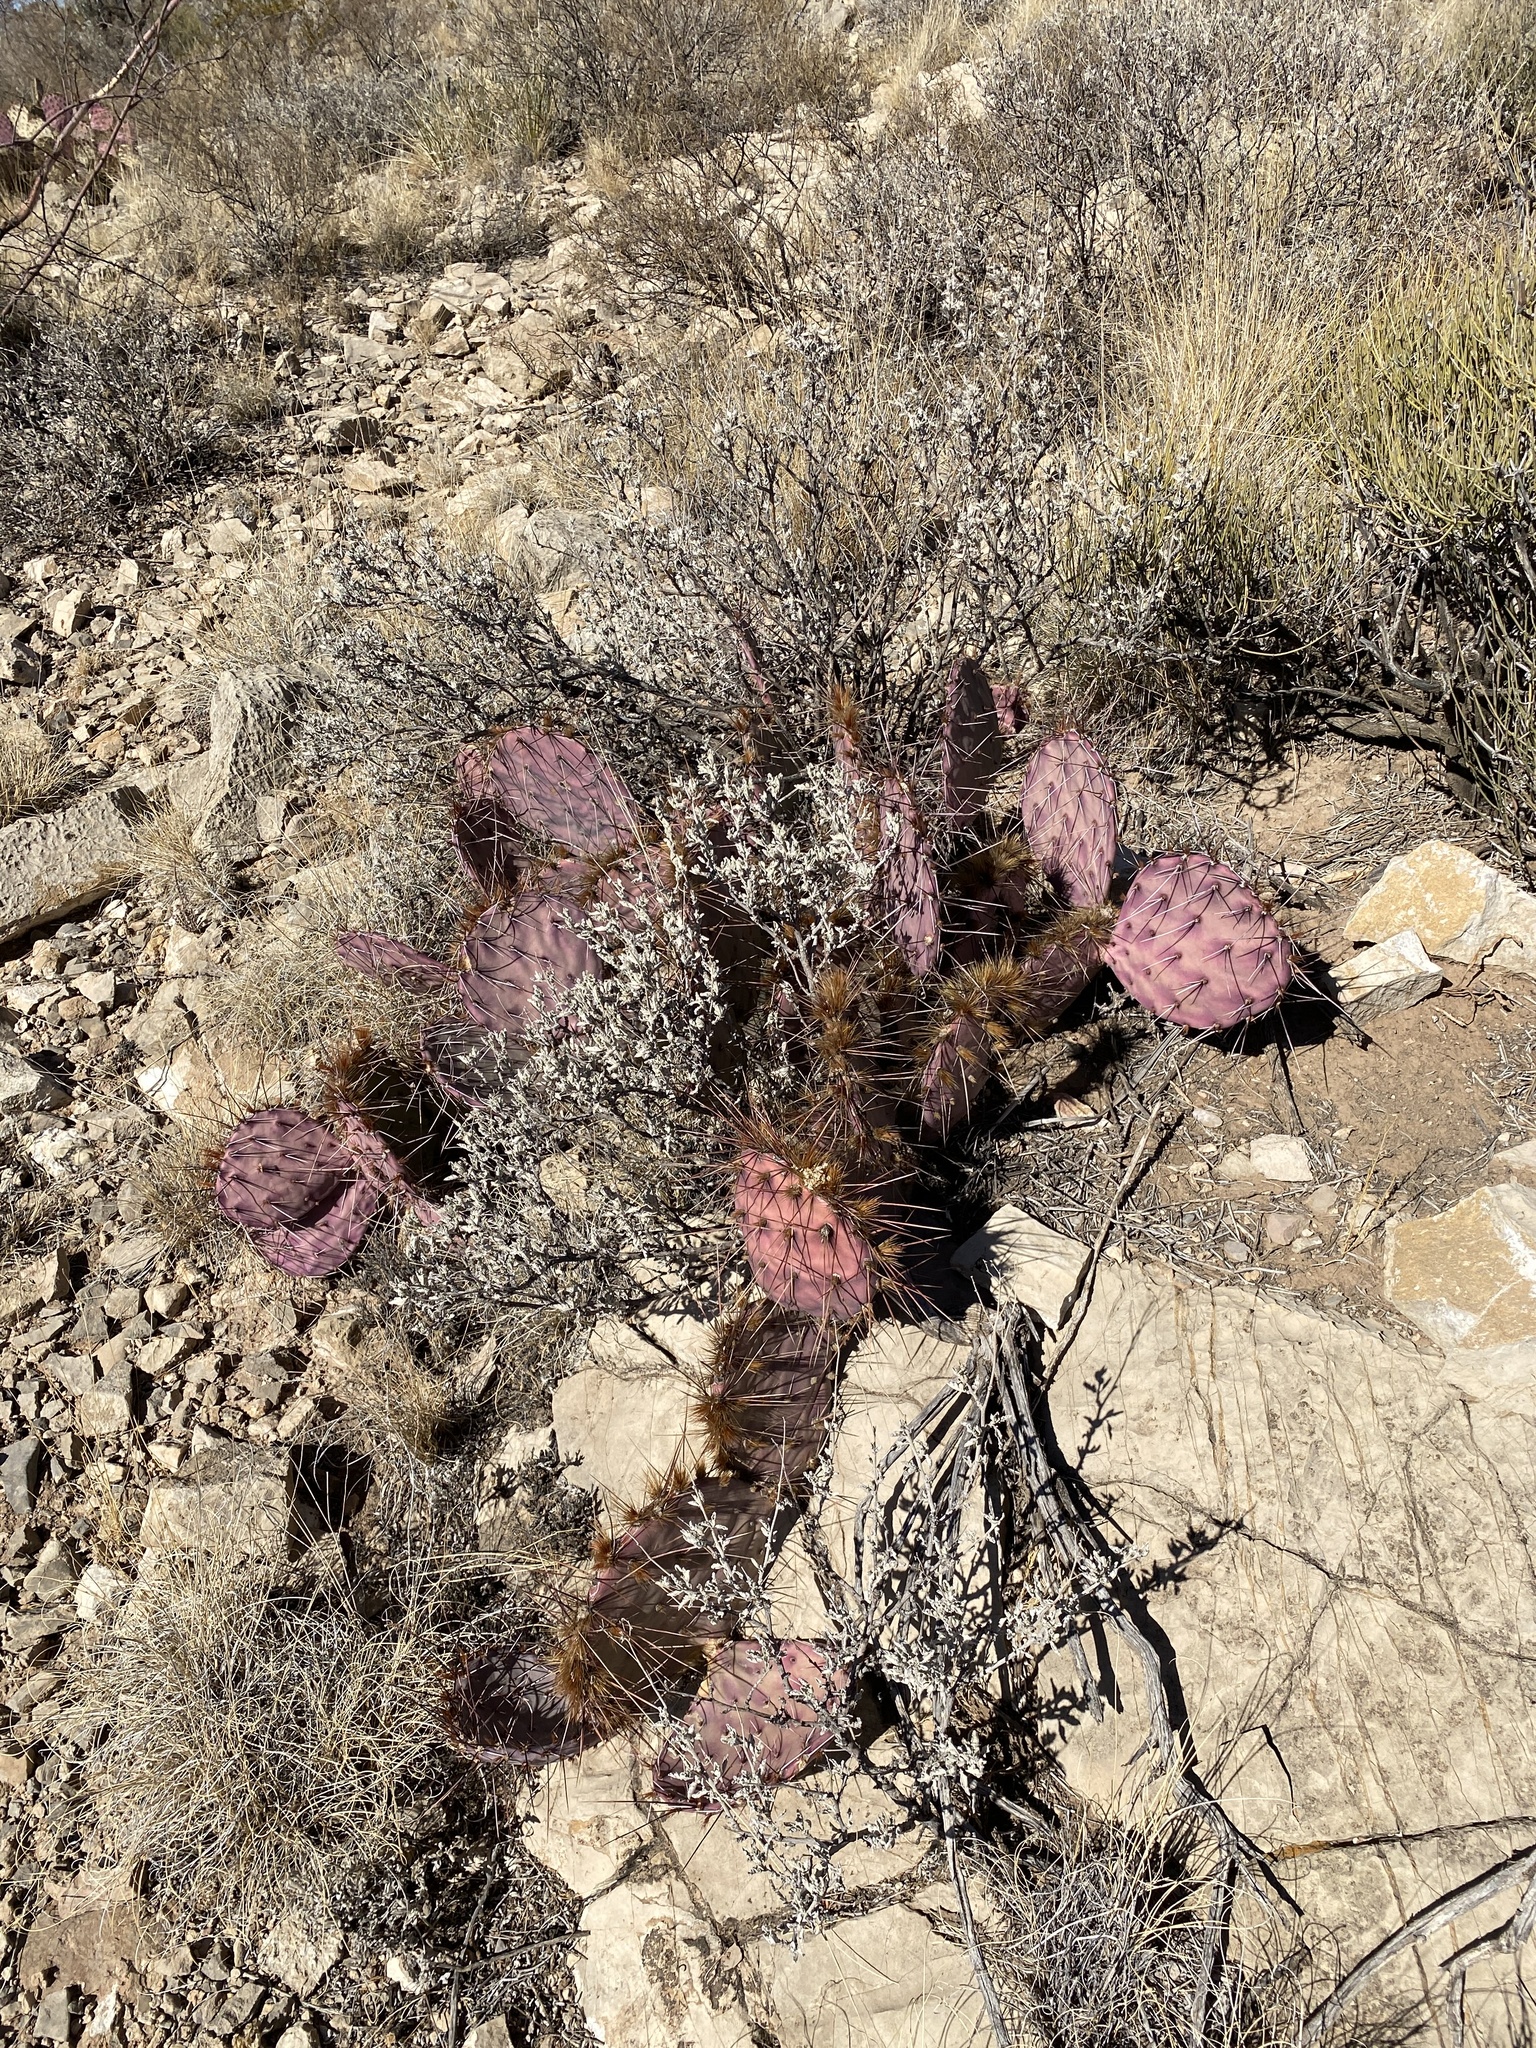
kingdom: Plantae
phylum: Tracheophyta
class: Magnoliopsida
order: Caryophyllales
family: Cactaceae
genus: Opuntia
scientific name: Opuntia macrocentra
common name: Purple prickly-pear
